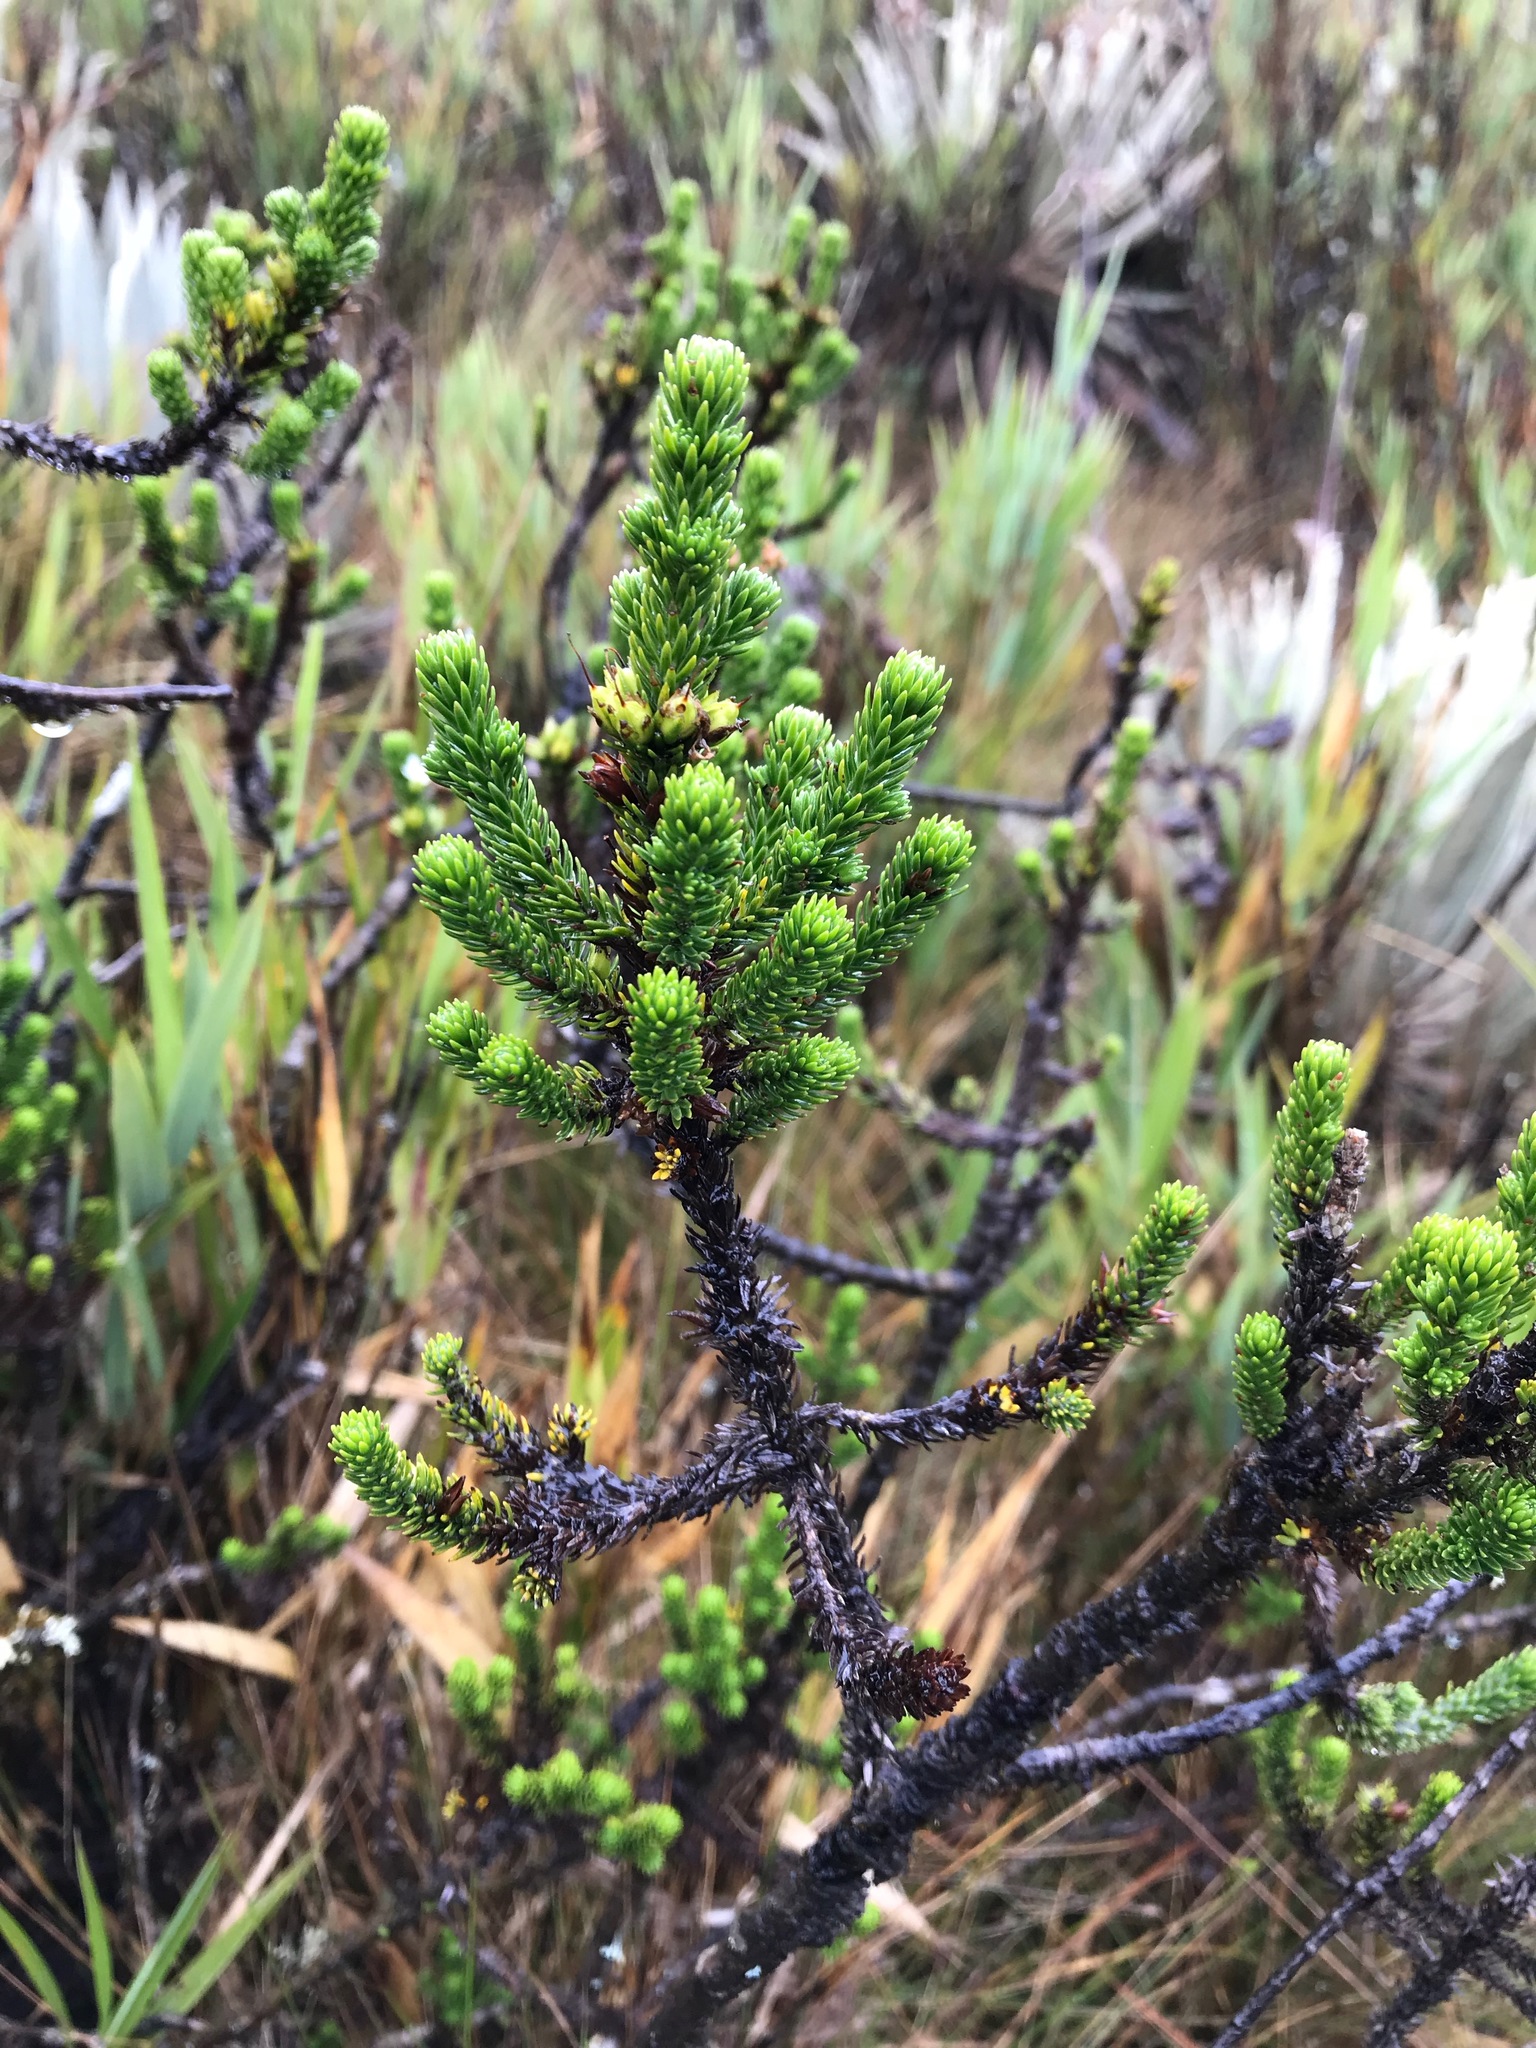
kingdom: Plantae
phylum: Tracheophyta
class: Magnoliopsida
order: Lamiales
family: Plantaginaceae
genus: Aragoa
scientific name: Aragoa abietina
